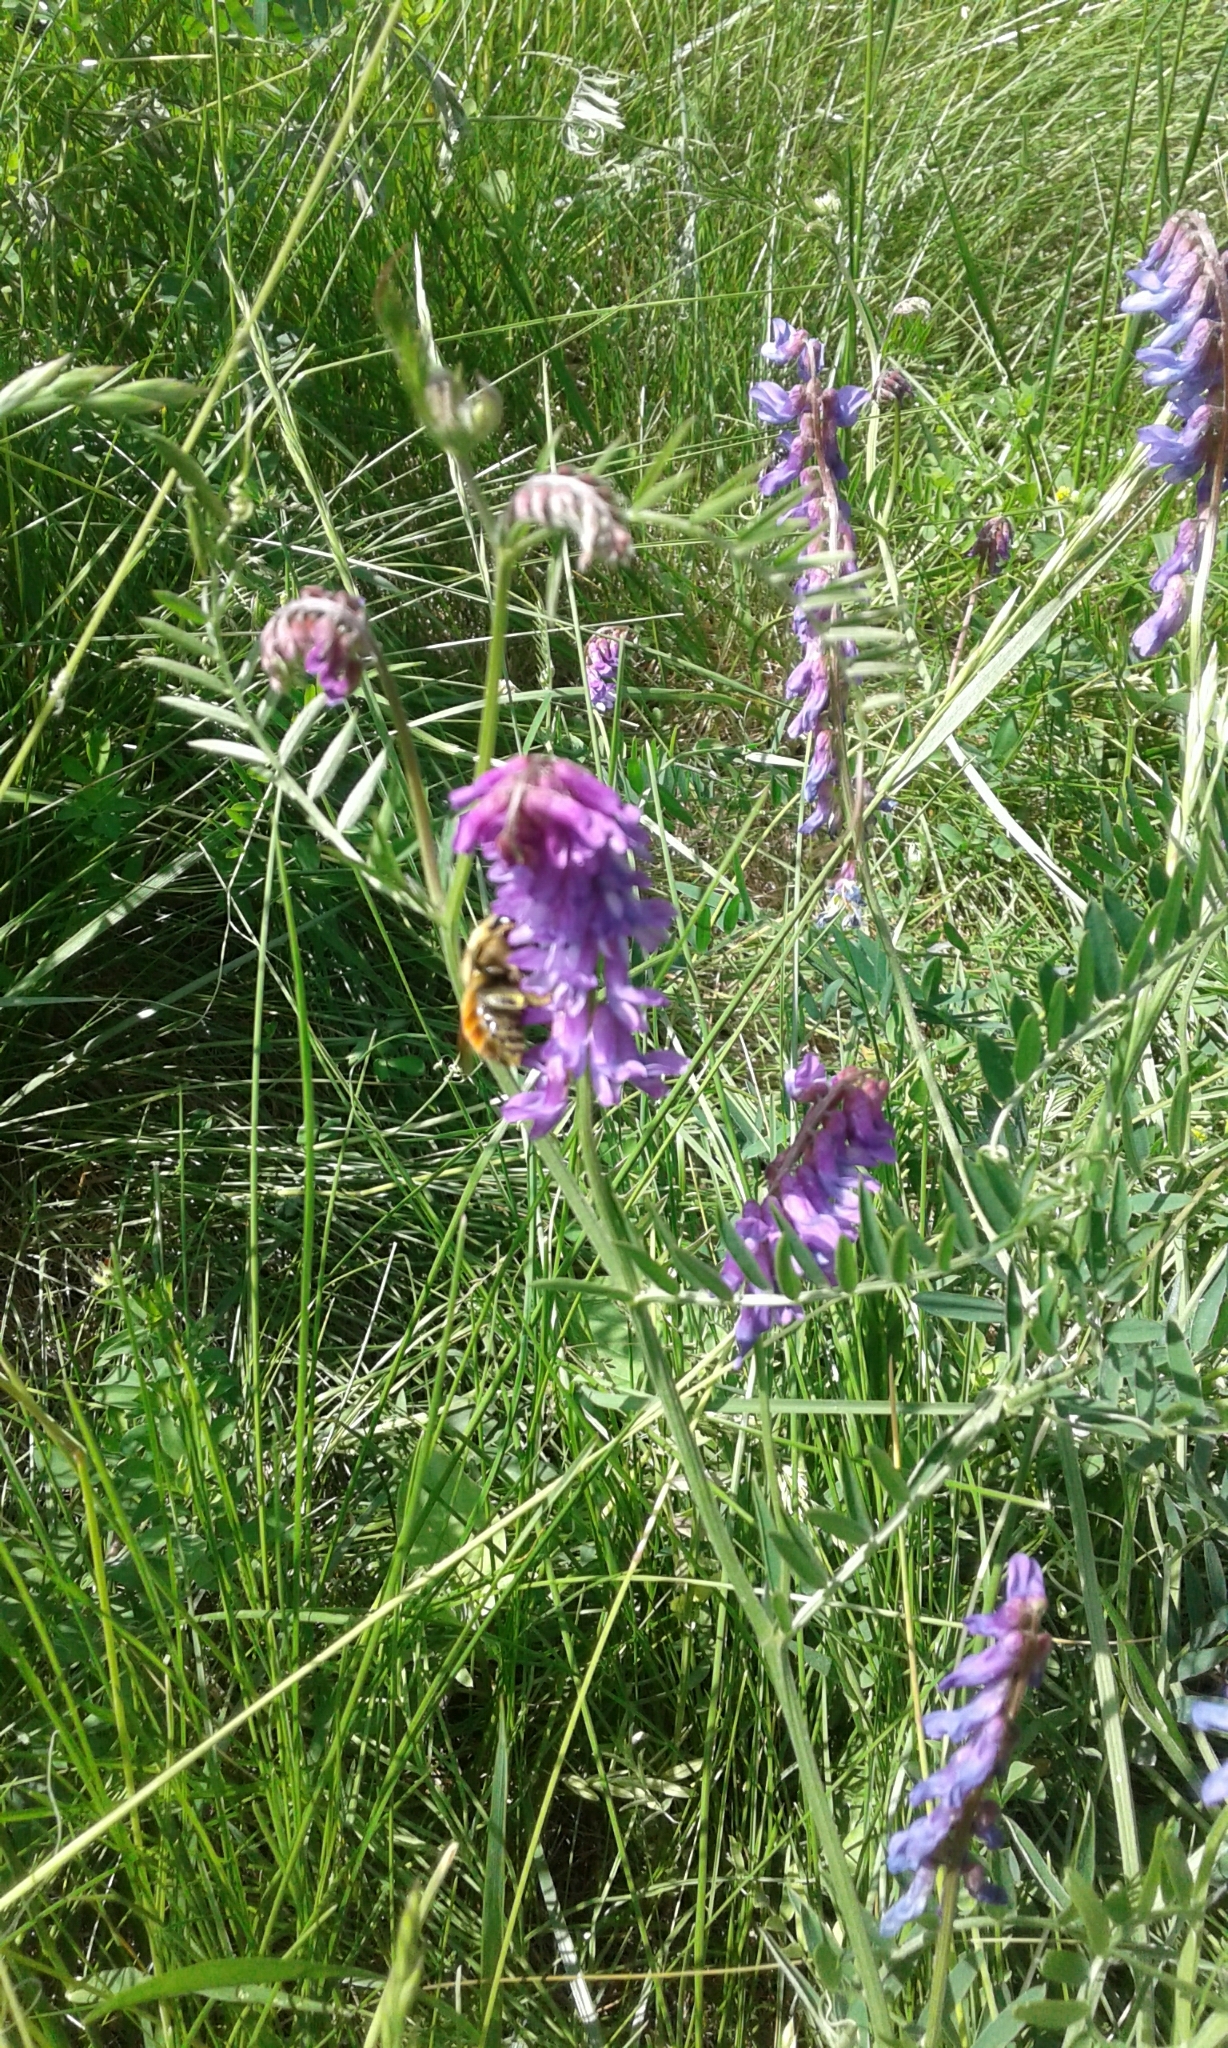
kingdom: Animalia
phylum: Arthropoda
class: Insecta
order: Hymenoptera
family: Apidae
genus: Bombus
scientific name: Bombus rufocinctus
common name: Red-belted bumble bee
